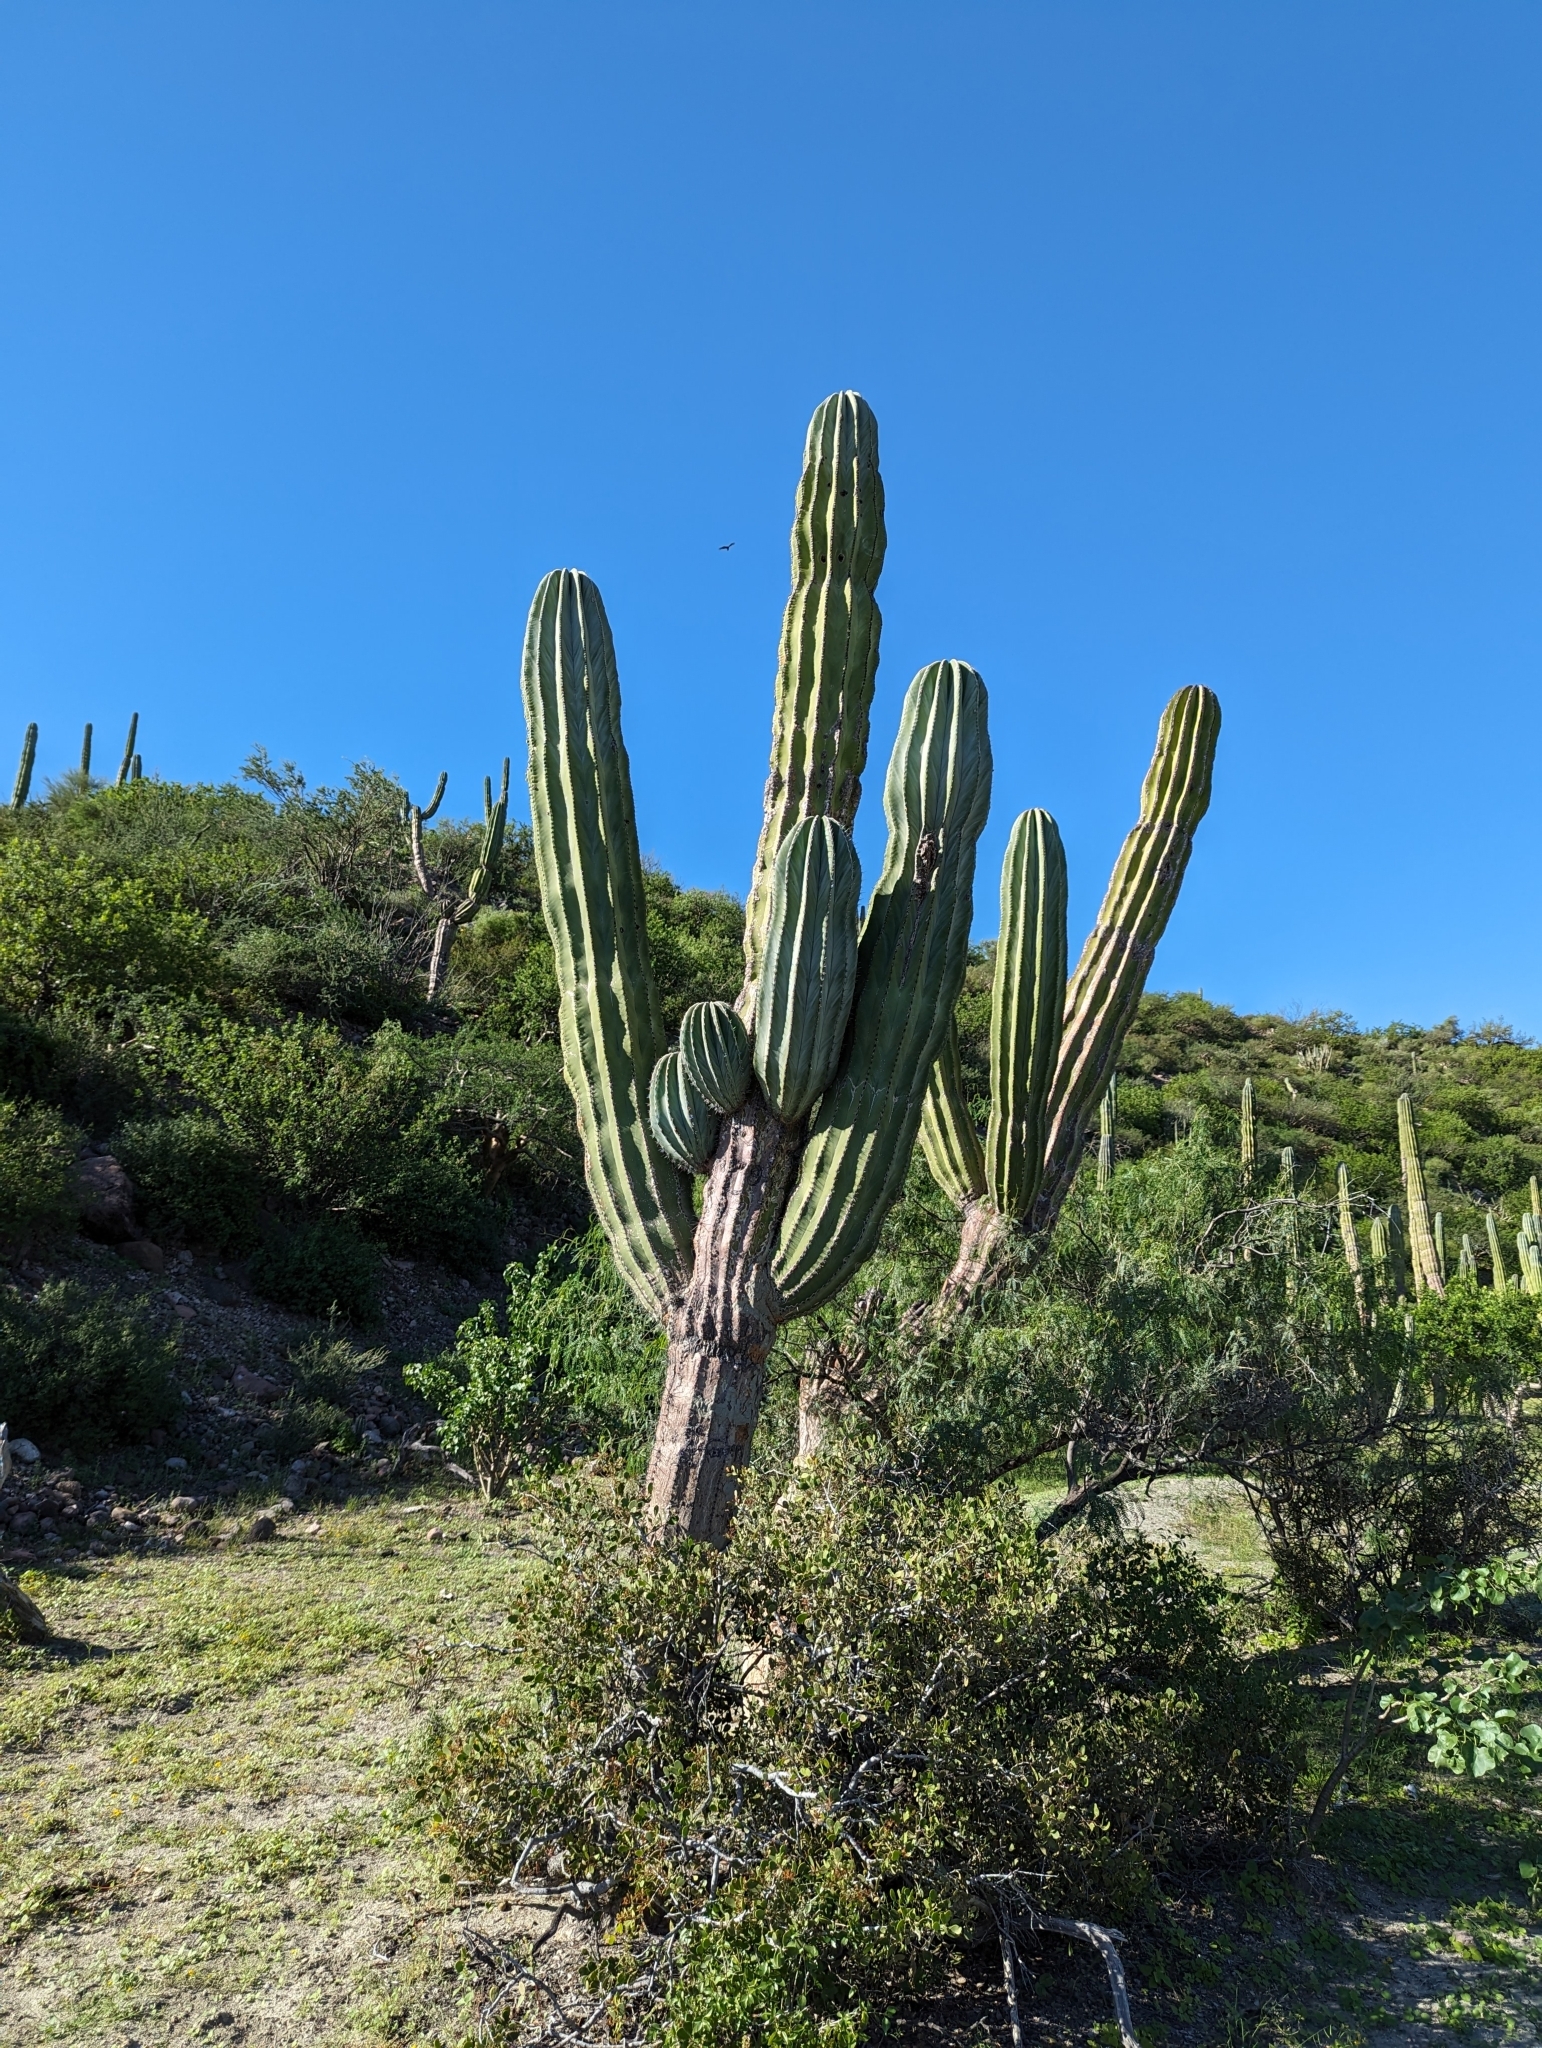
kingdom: Plantae
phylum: Tracheophyta
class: Magnoliopsida
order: Caryophyllales
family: Cactaceae
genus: Pachycereus
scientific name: Pachycereus pringlei
